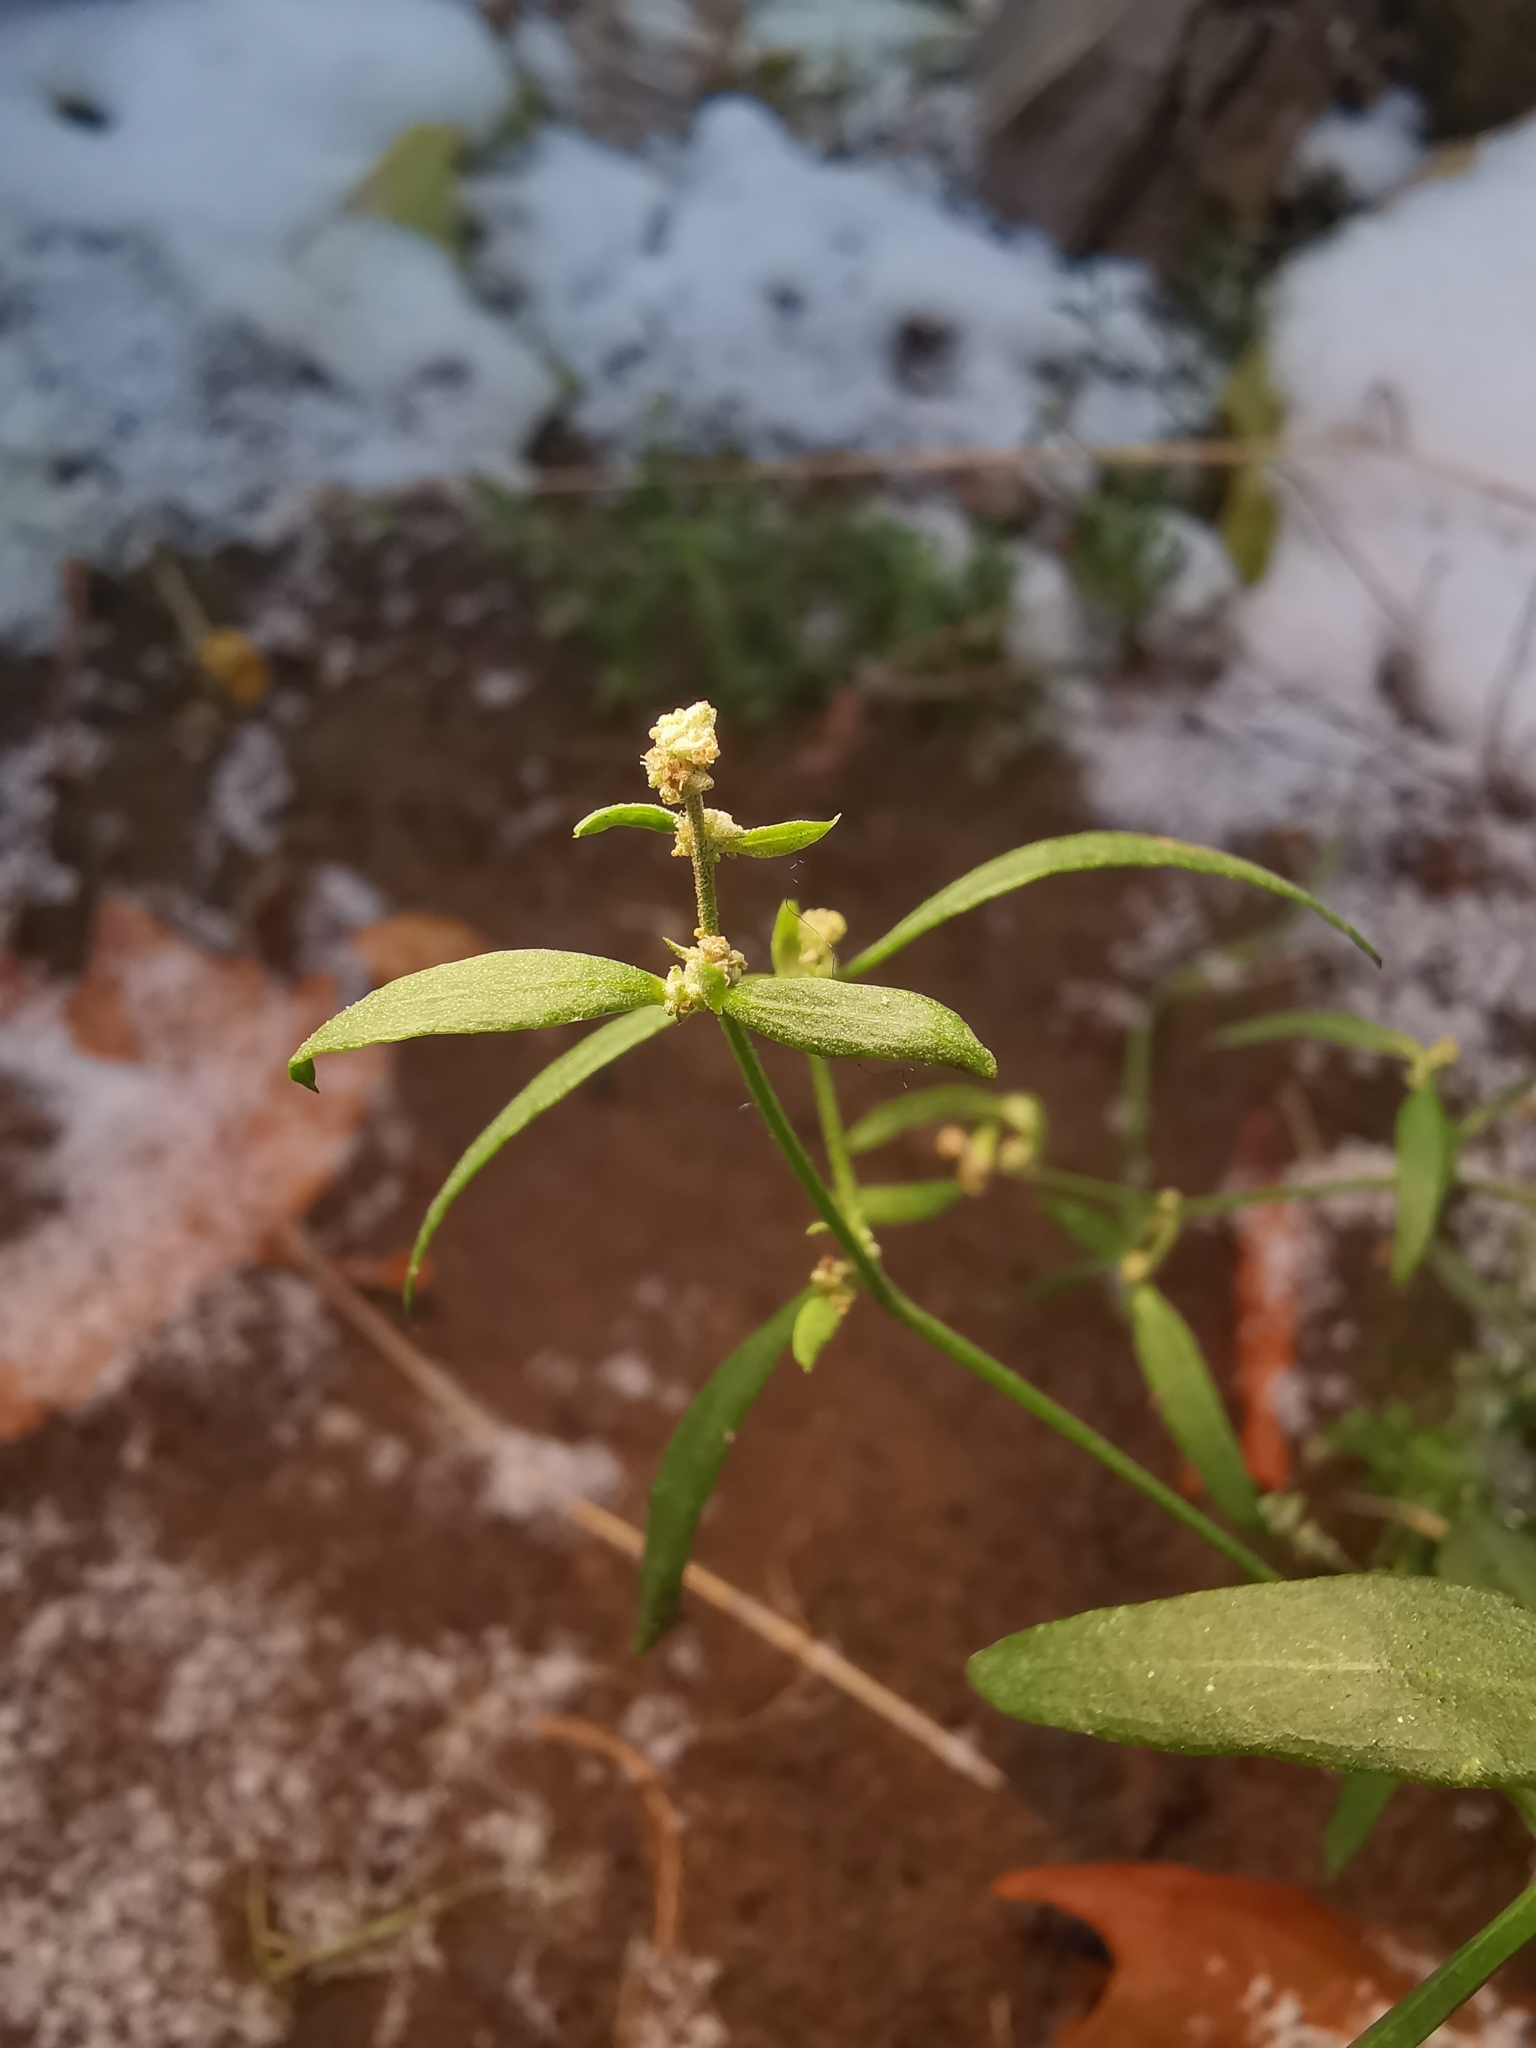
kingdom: Plantae
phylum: Tracheophyta
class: Magnoliopsida
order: Caryophyllales
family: Amaranthaceae
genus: Atriplex
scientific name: Atriplex patula
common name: Common orache
